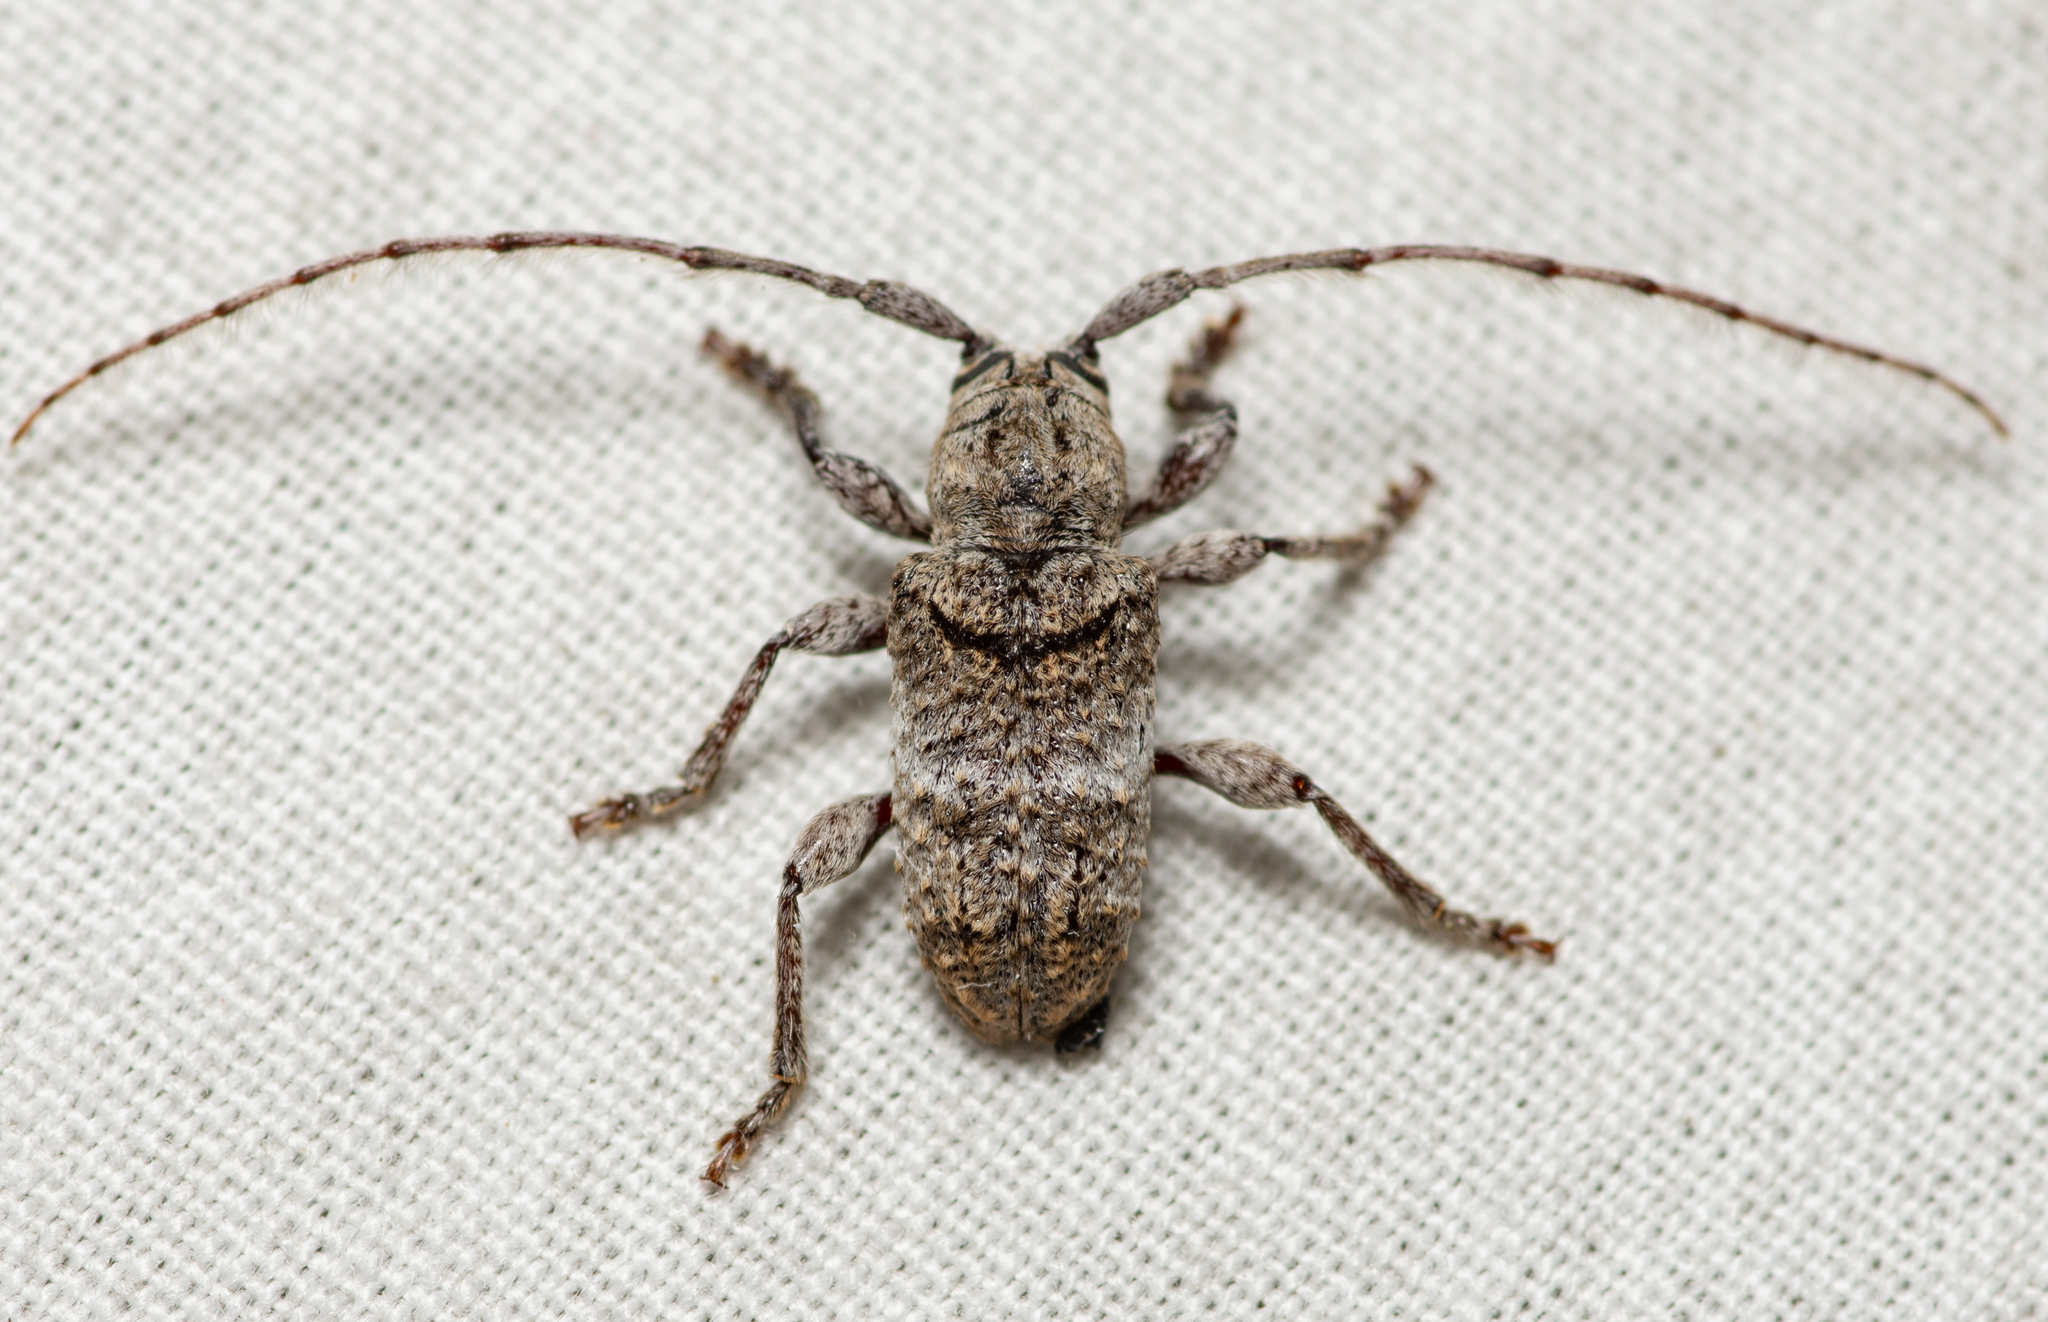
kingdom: Animalia
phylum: Arthropoda
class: Insecta
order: Coleoptera
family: Cerambycidae
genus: Ecyrus
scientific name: Ecyrus dasycerus
